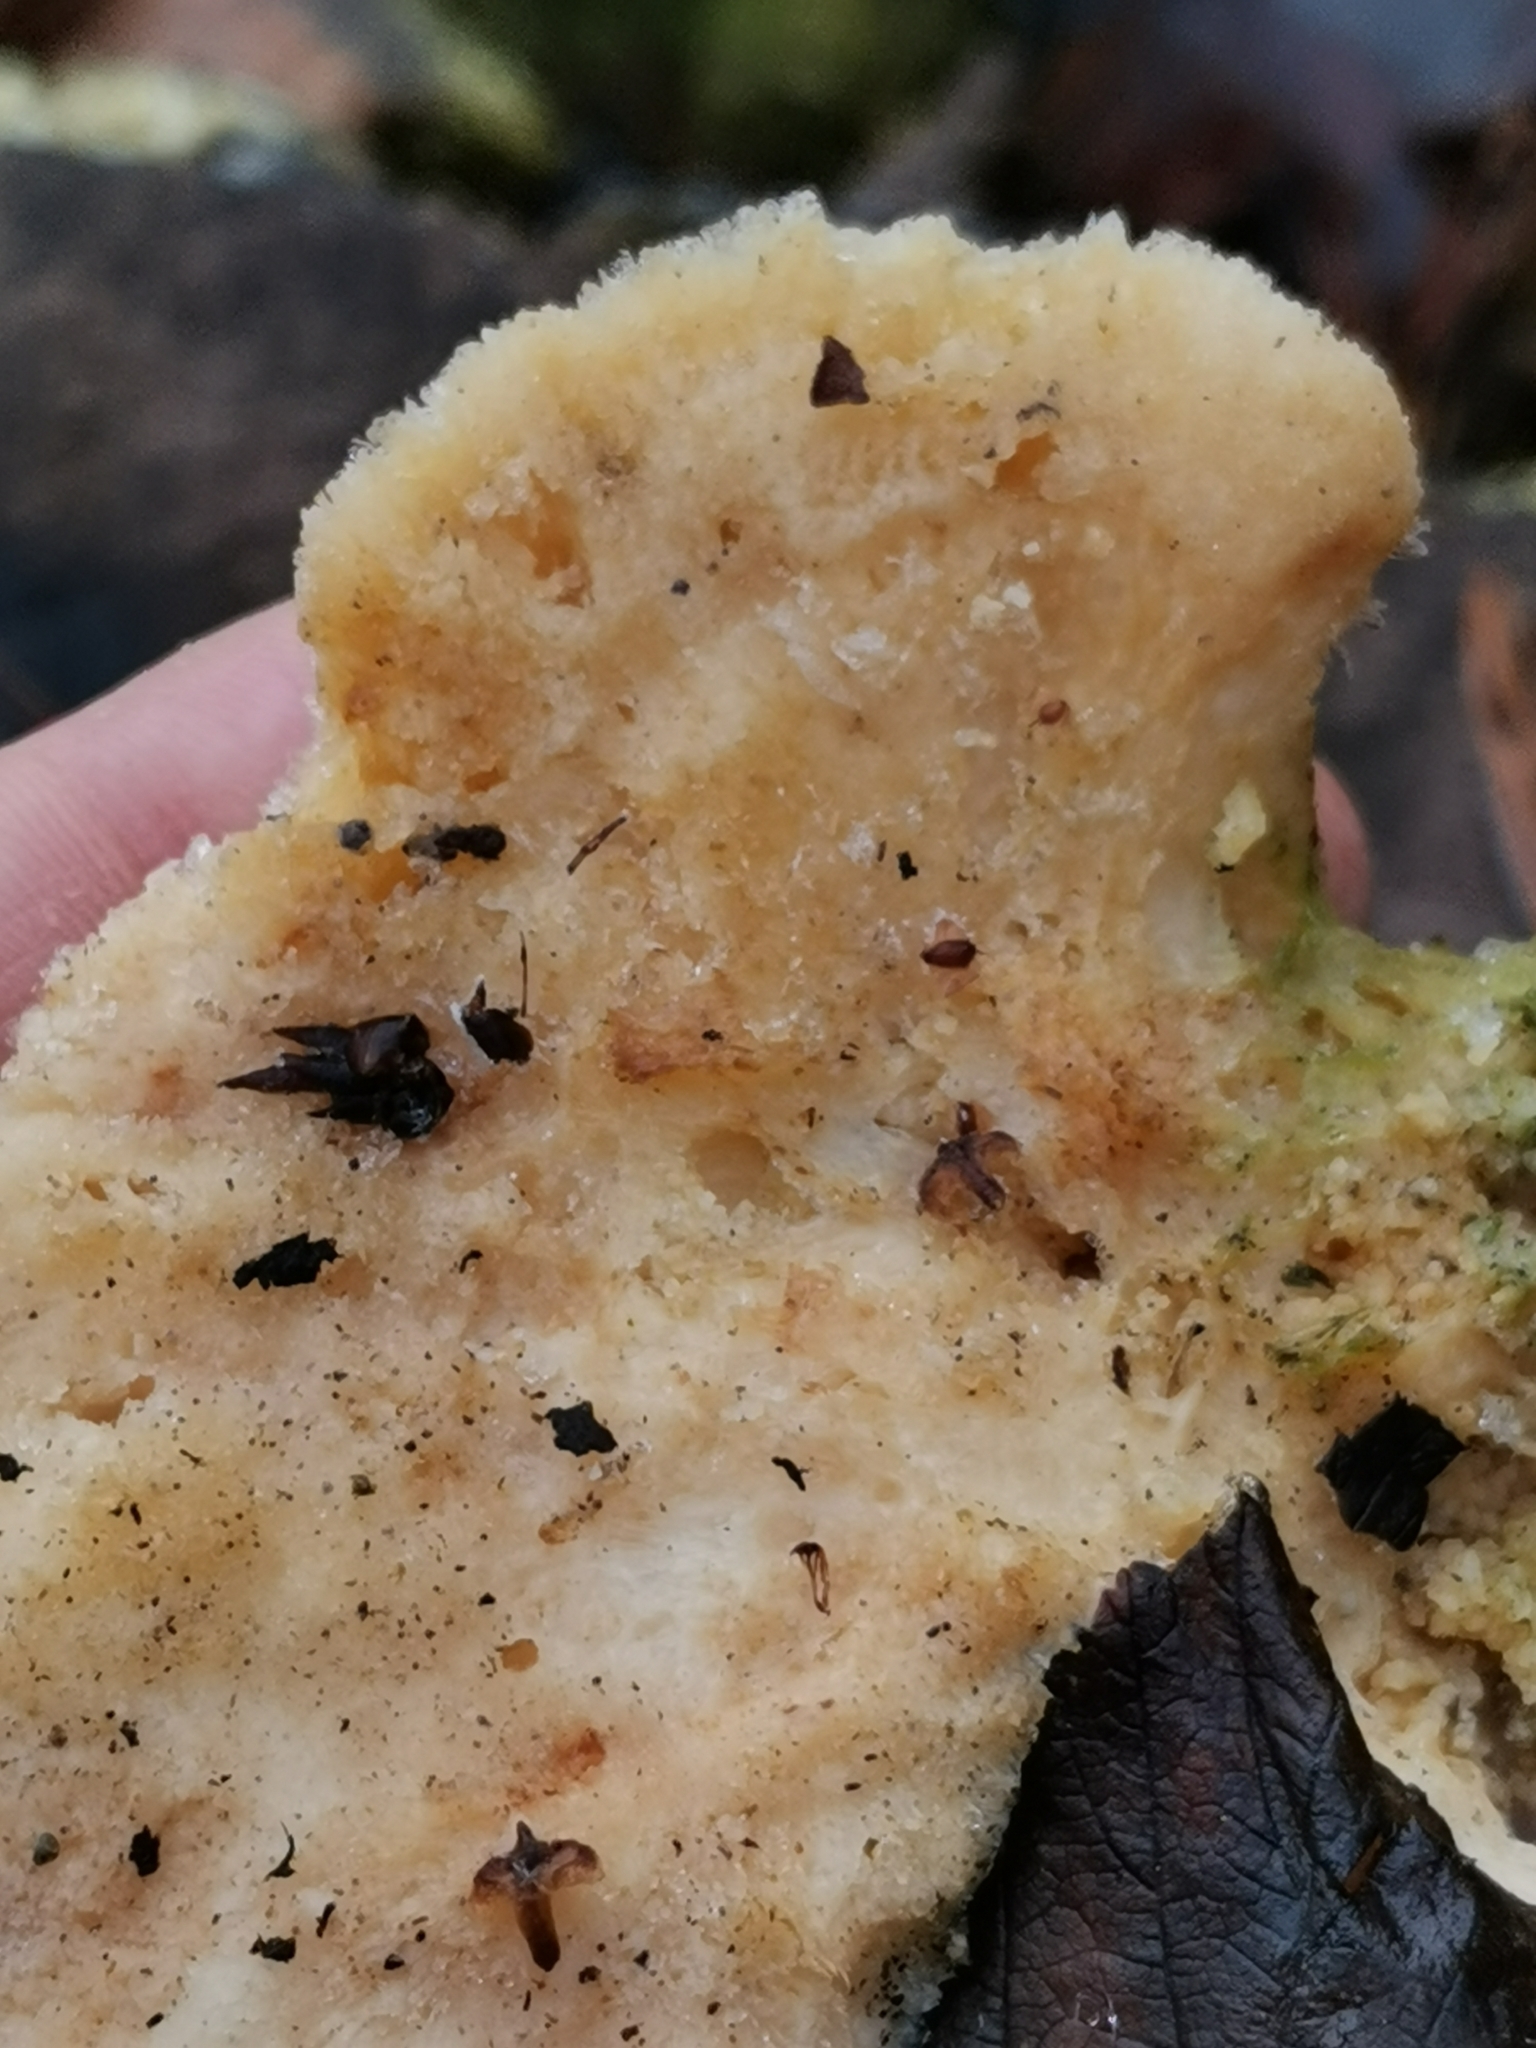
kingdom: Fungi
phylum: Basidiomycota
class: Agaricomycetes
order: Polyporales
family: Fomitopsidaceae
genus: Climacocystis
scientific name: Climacocystis borealis
